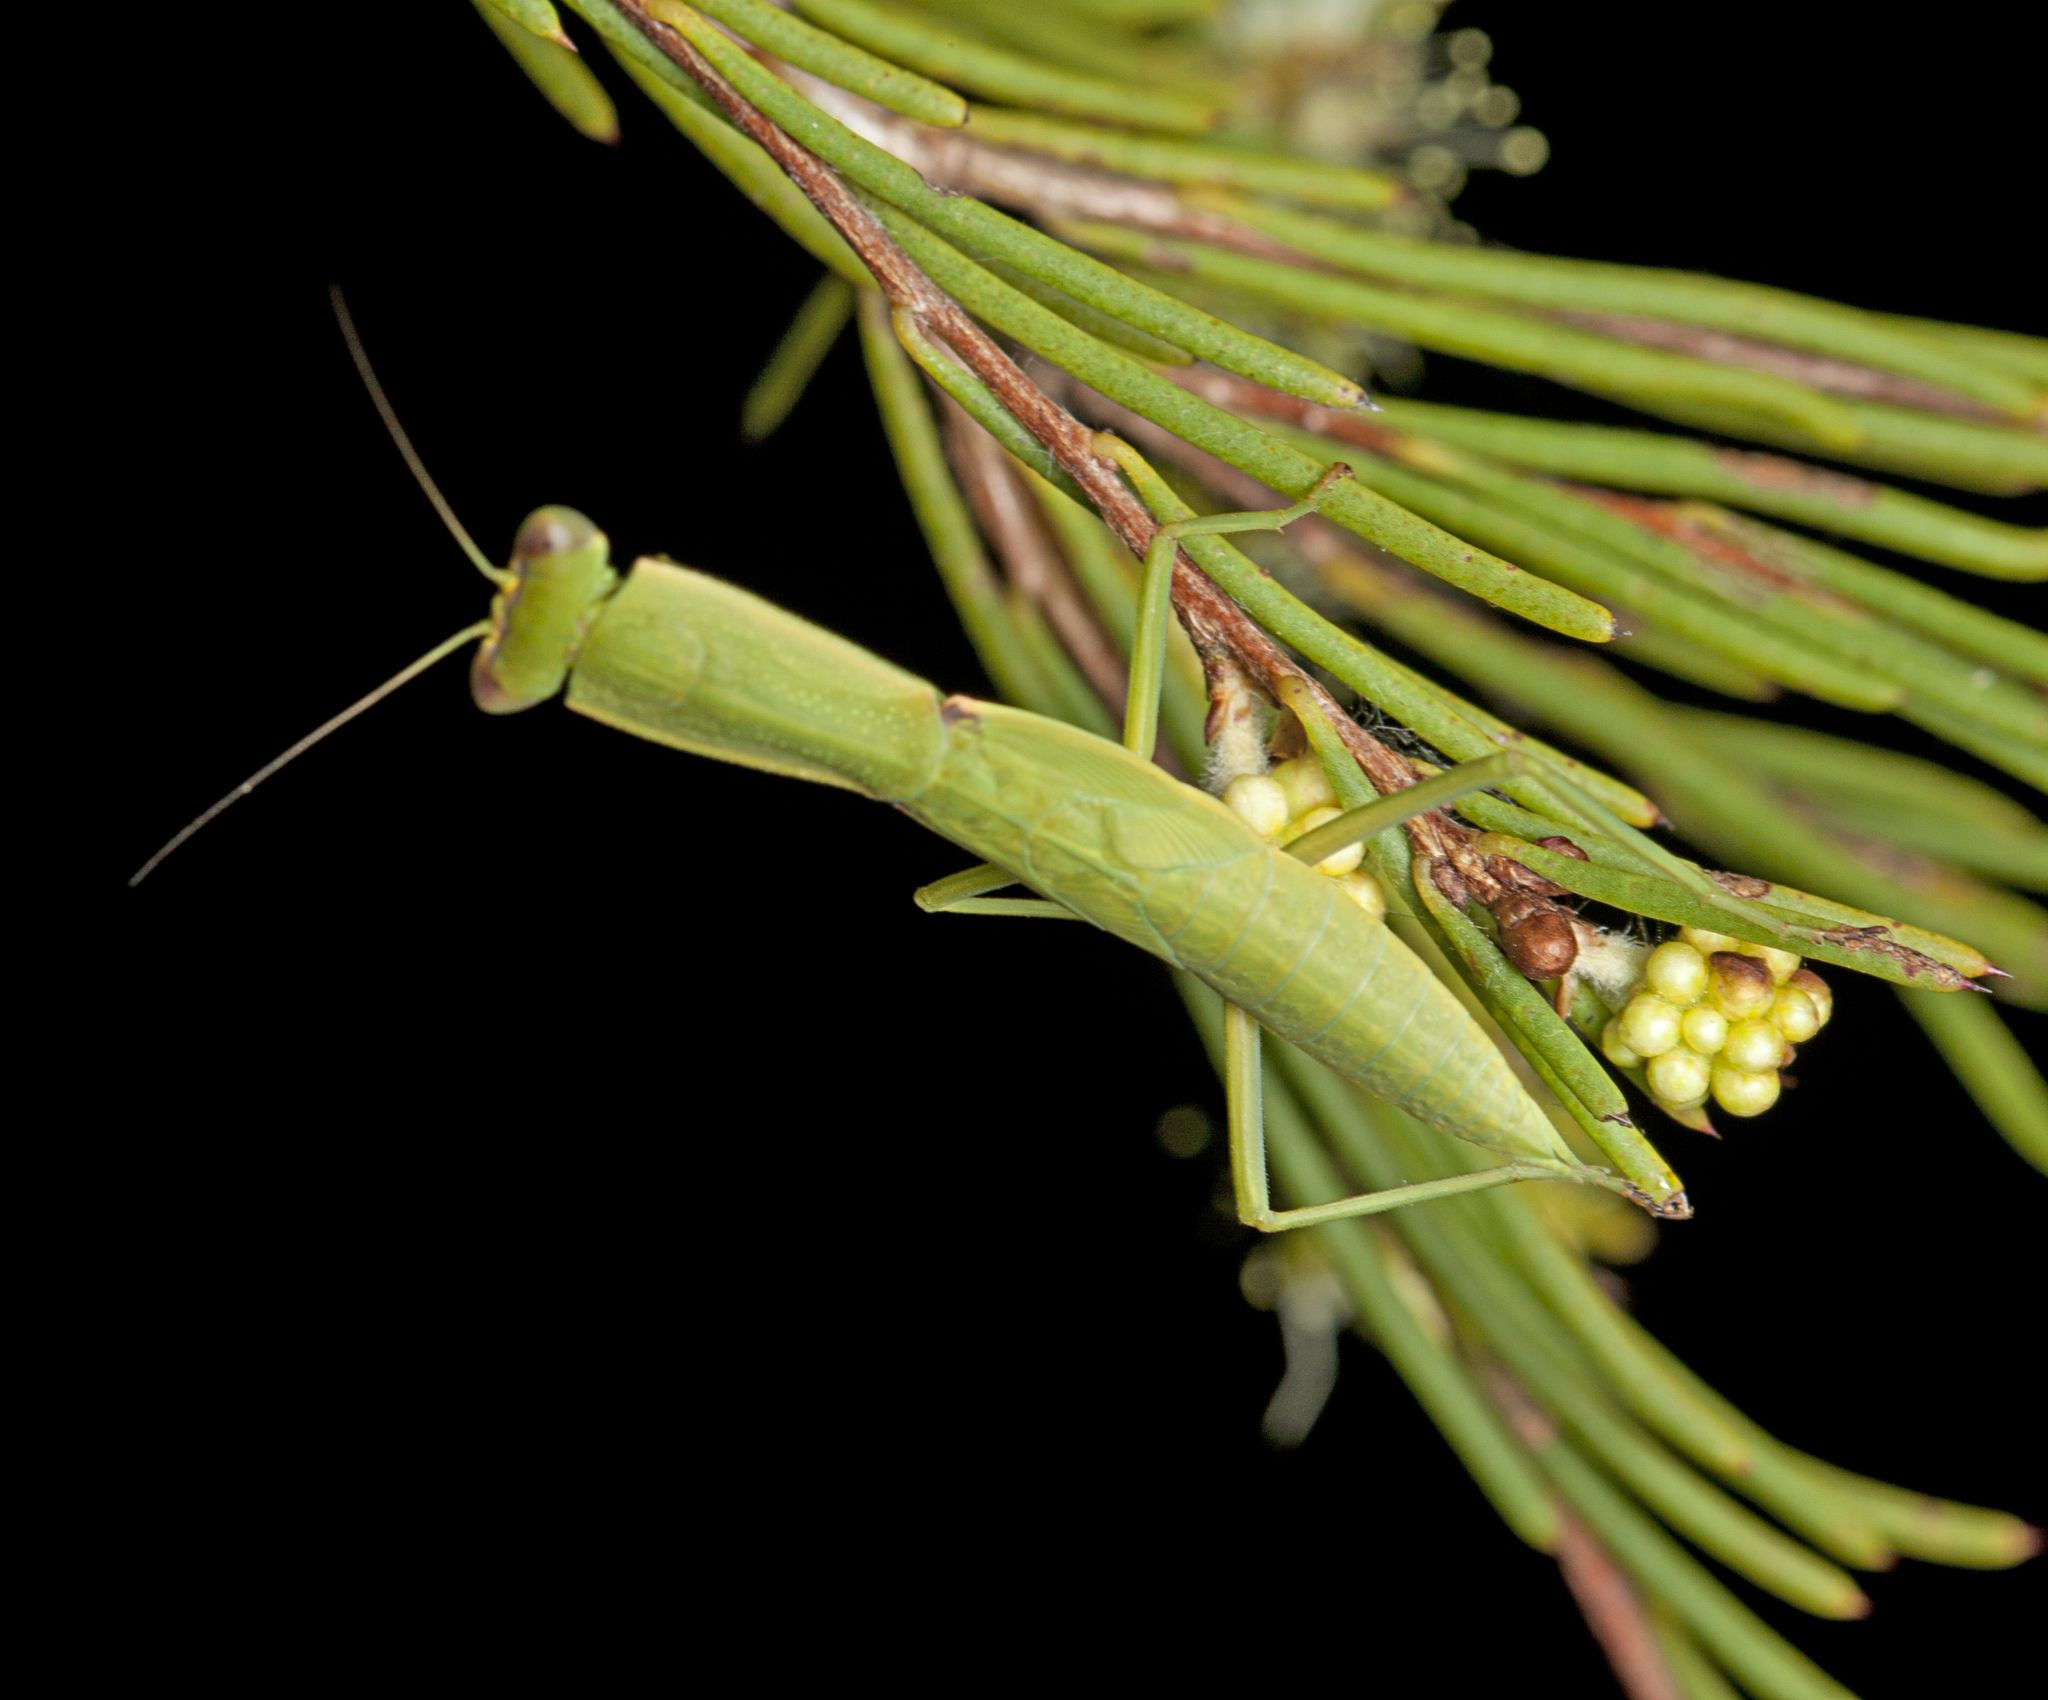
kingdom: Animalia
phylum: Arthropoda
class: Insecta
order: Mantodea
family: Mantidae
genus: Orthodera
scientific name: Orthodera ministralis
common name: Mantis
